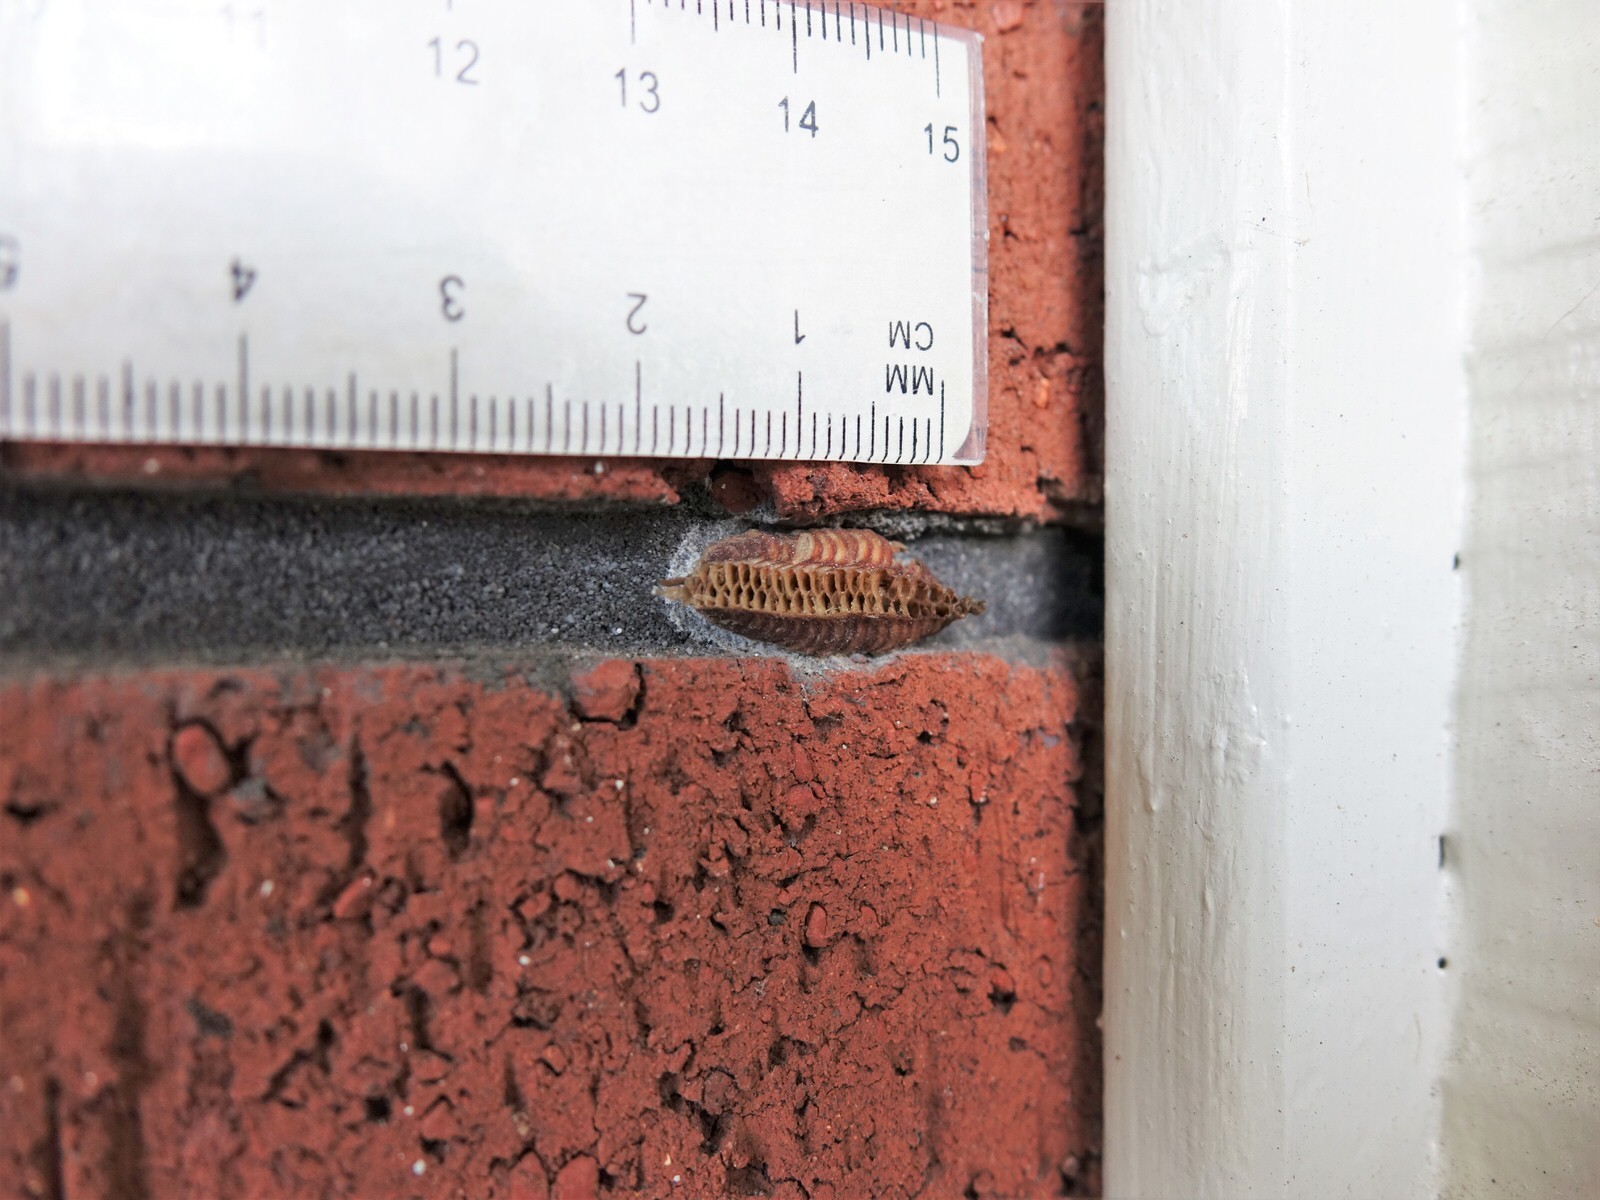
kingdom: Animalia
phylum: Arthropoda
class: Insecta
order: Mantodea
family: Miomantidae
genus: Miomantis
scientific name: Miomantis caffra
